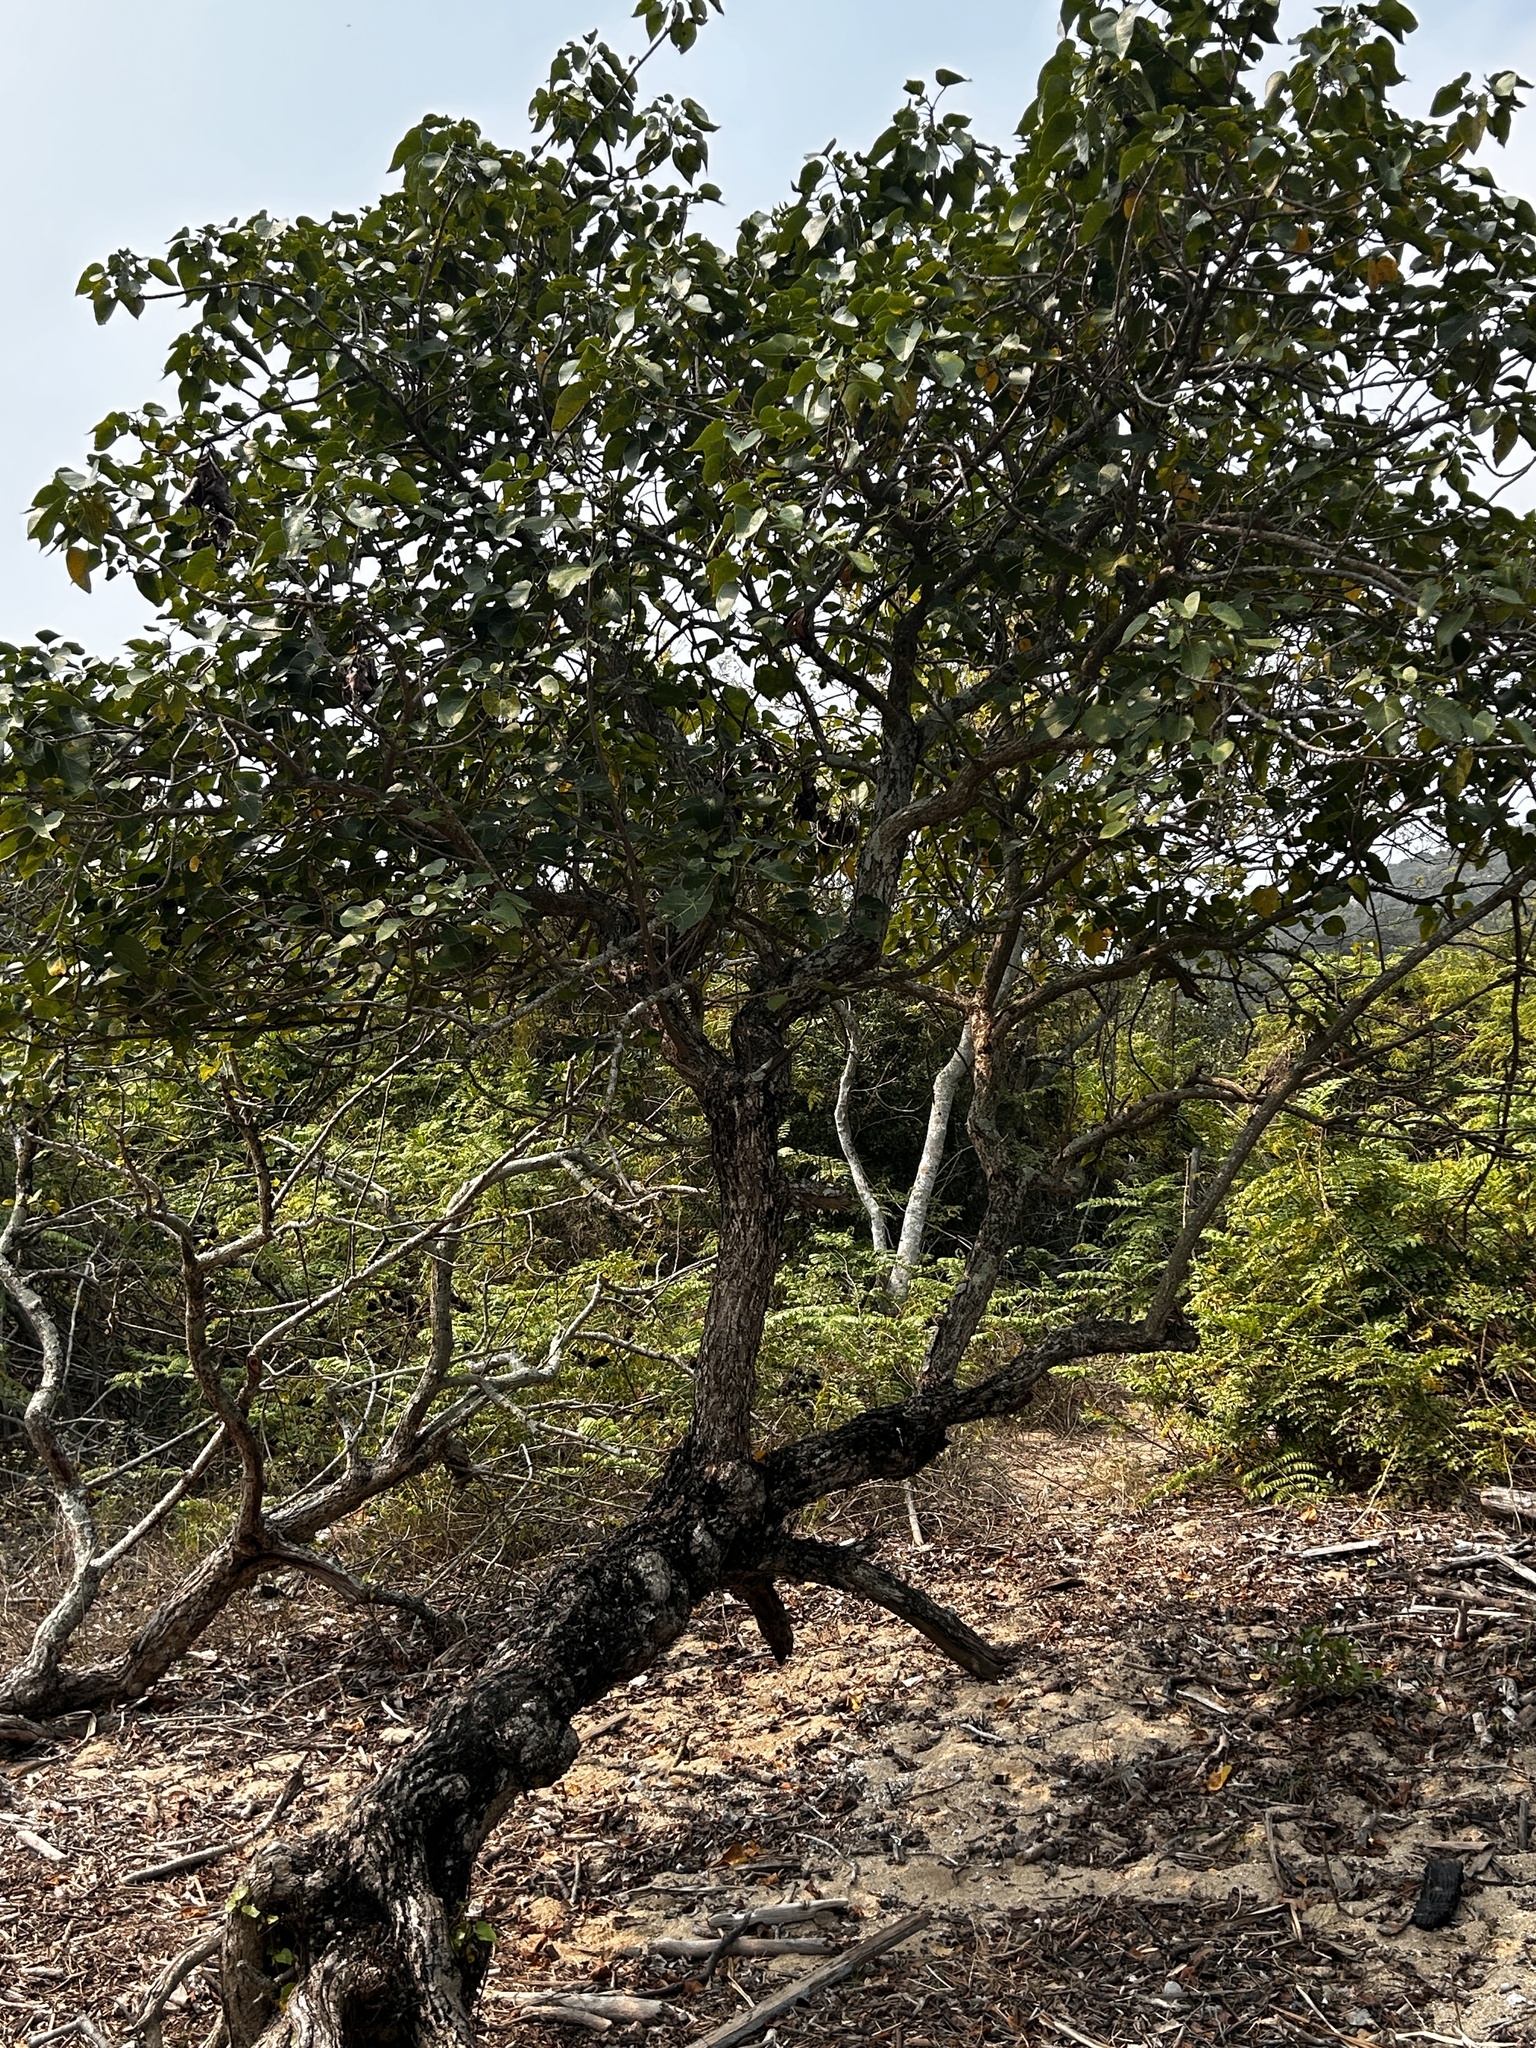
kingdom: Plantae
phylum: Tracheophyta
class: Magnoliopsida
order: Malvales
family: Malvaceae
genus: Thespesia
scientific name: Thespesia populnea
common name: Seaside mahoe
